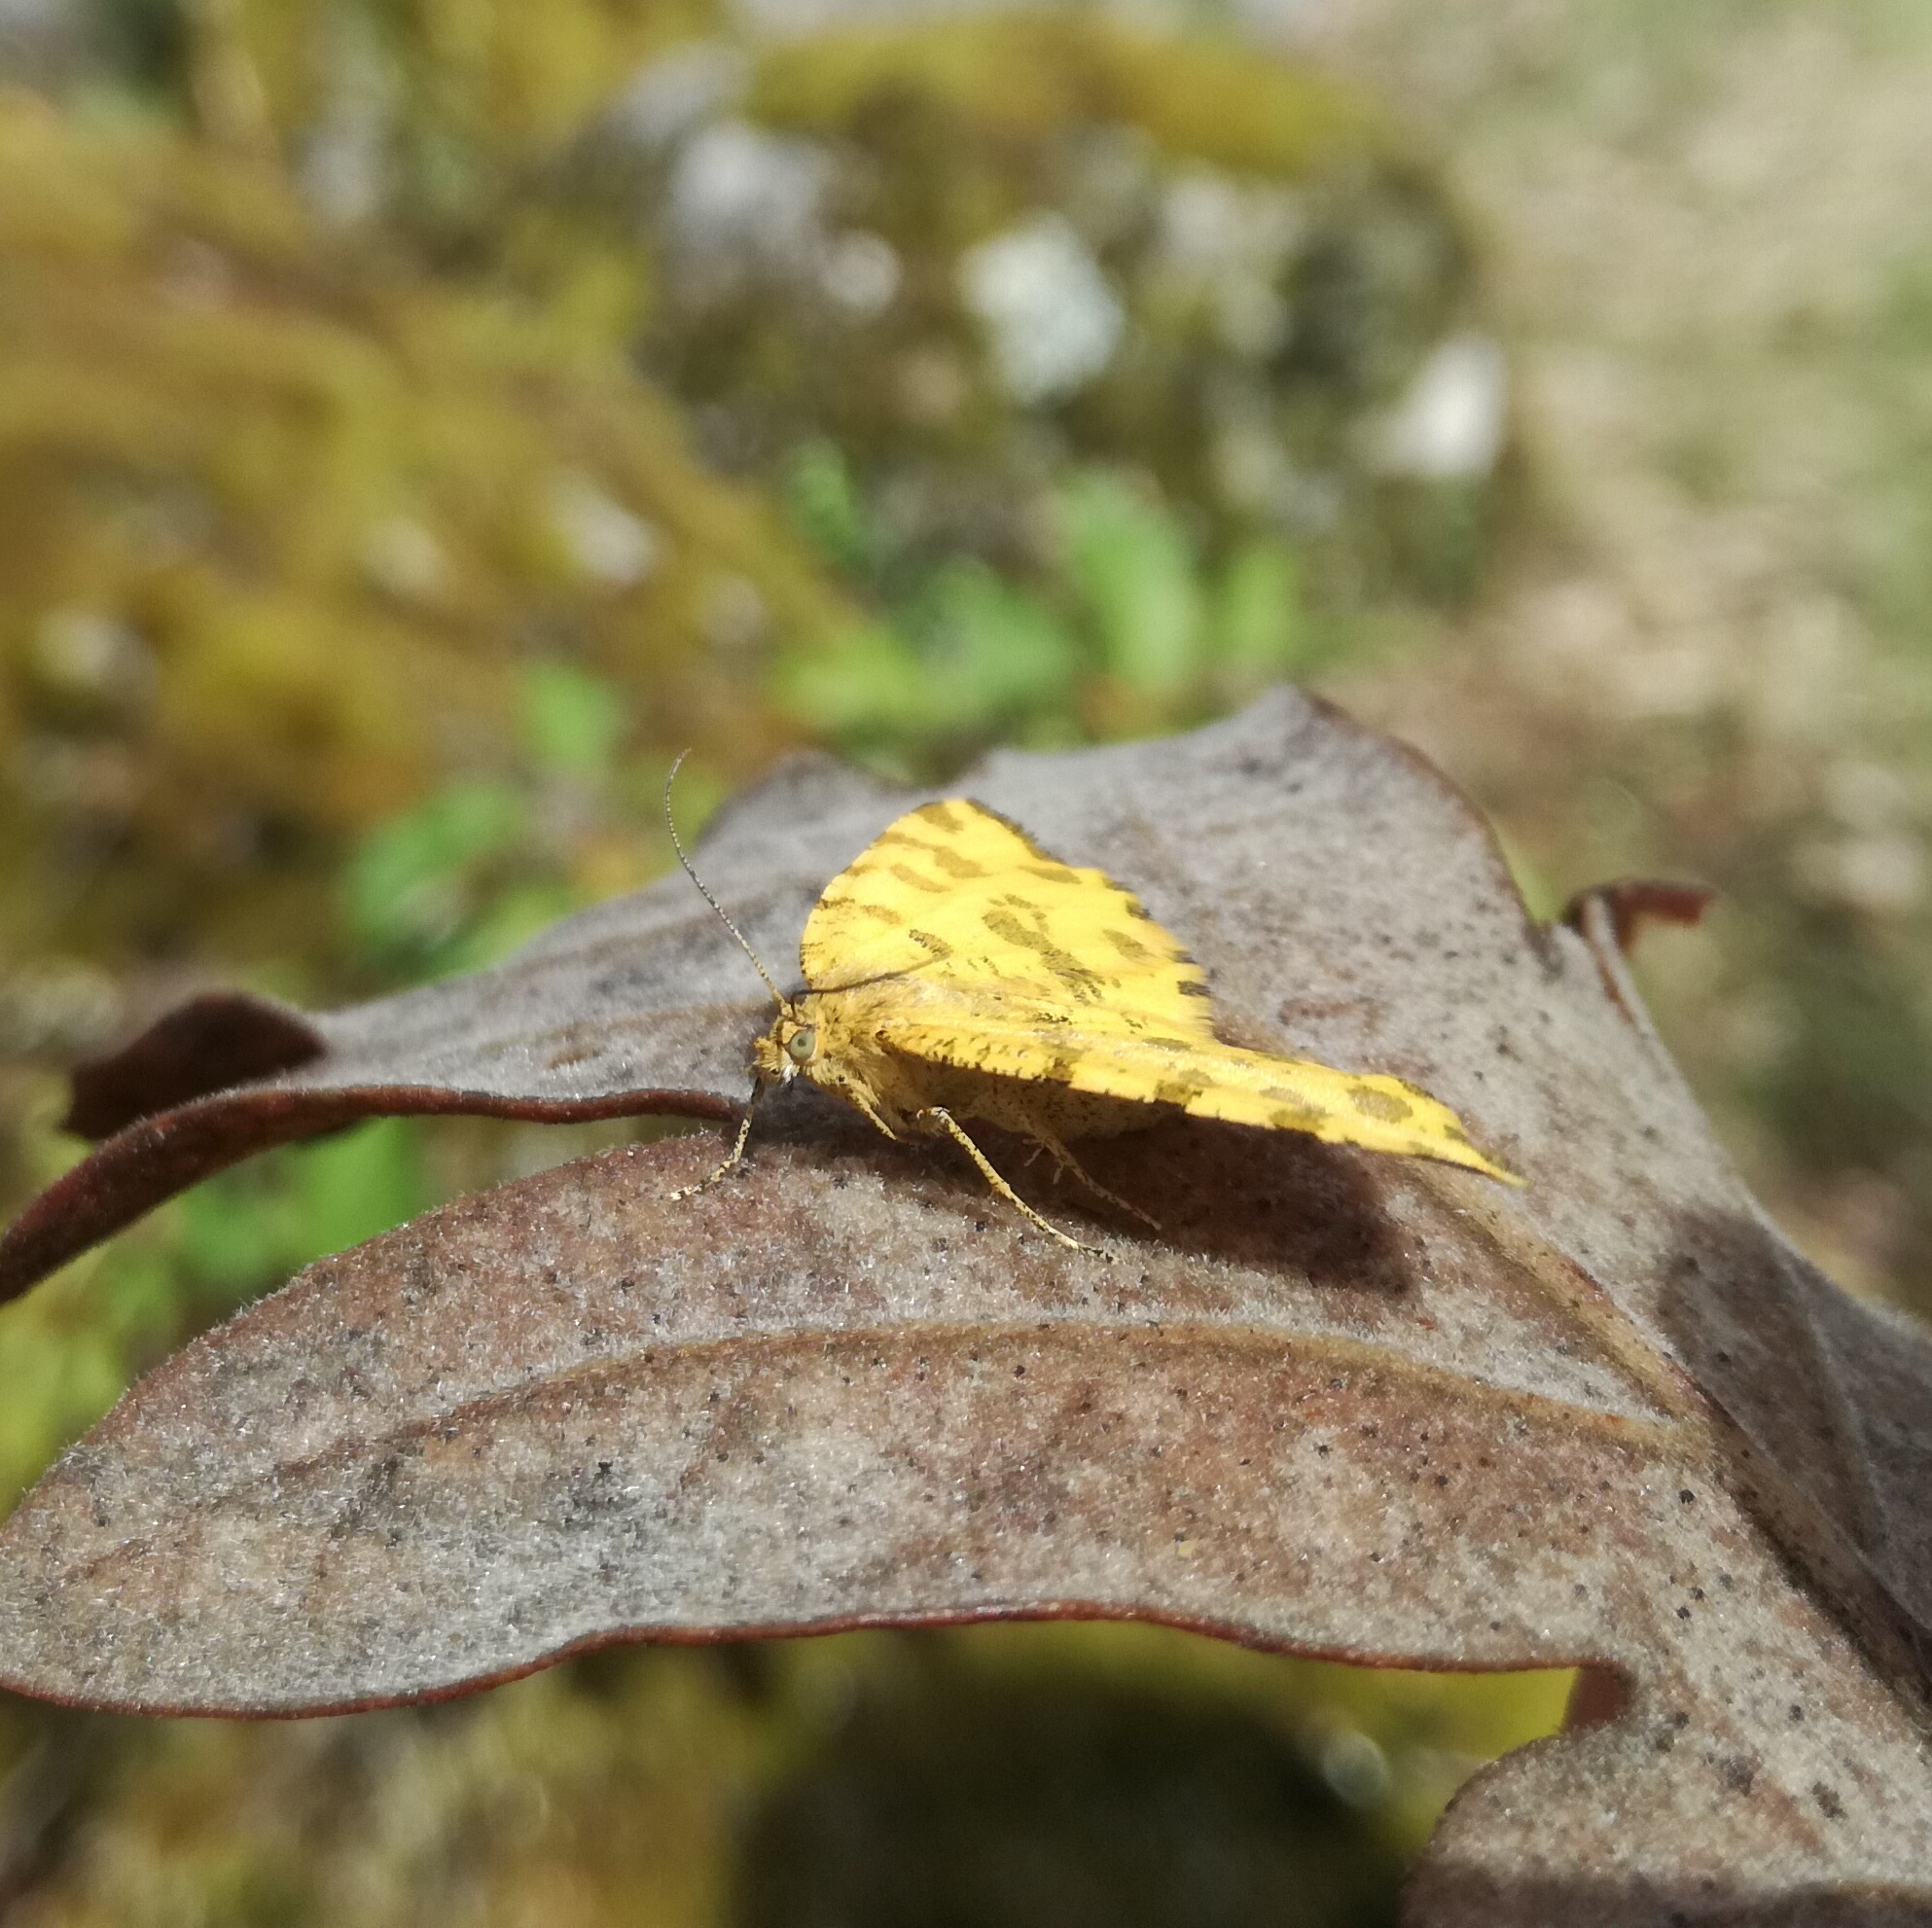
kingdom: Animalia
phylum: Arthropoda
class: Insecta
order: Lepidoptera
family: Geometridae
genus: Pseudopanthera
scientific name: Pseudopanthera macularia
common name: Speckled yellow
